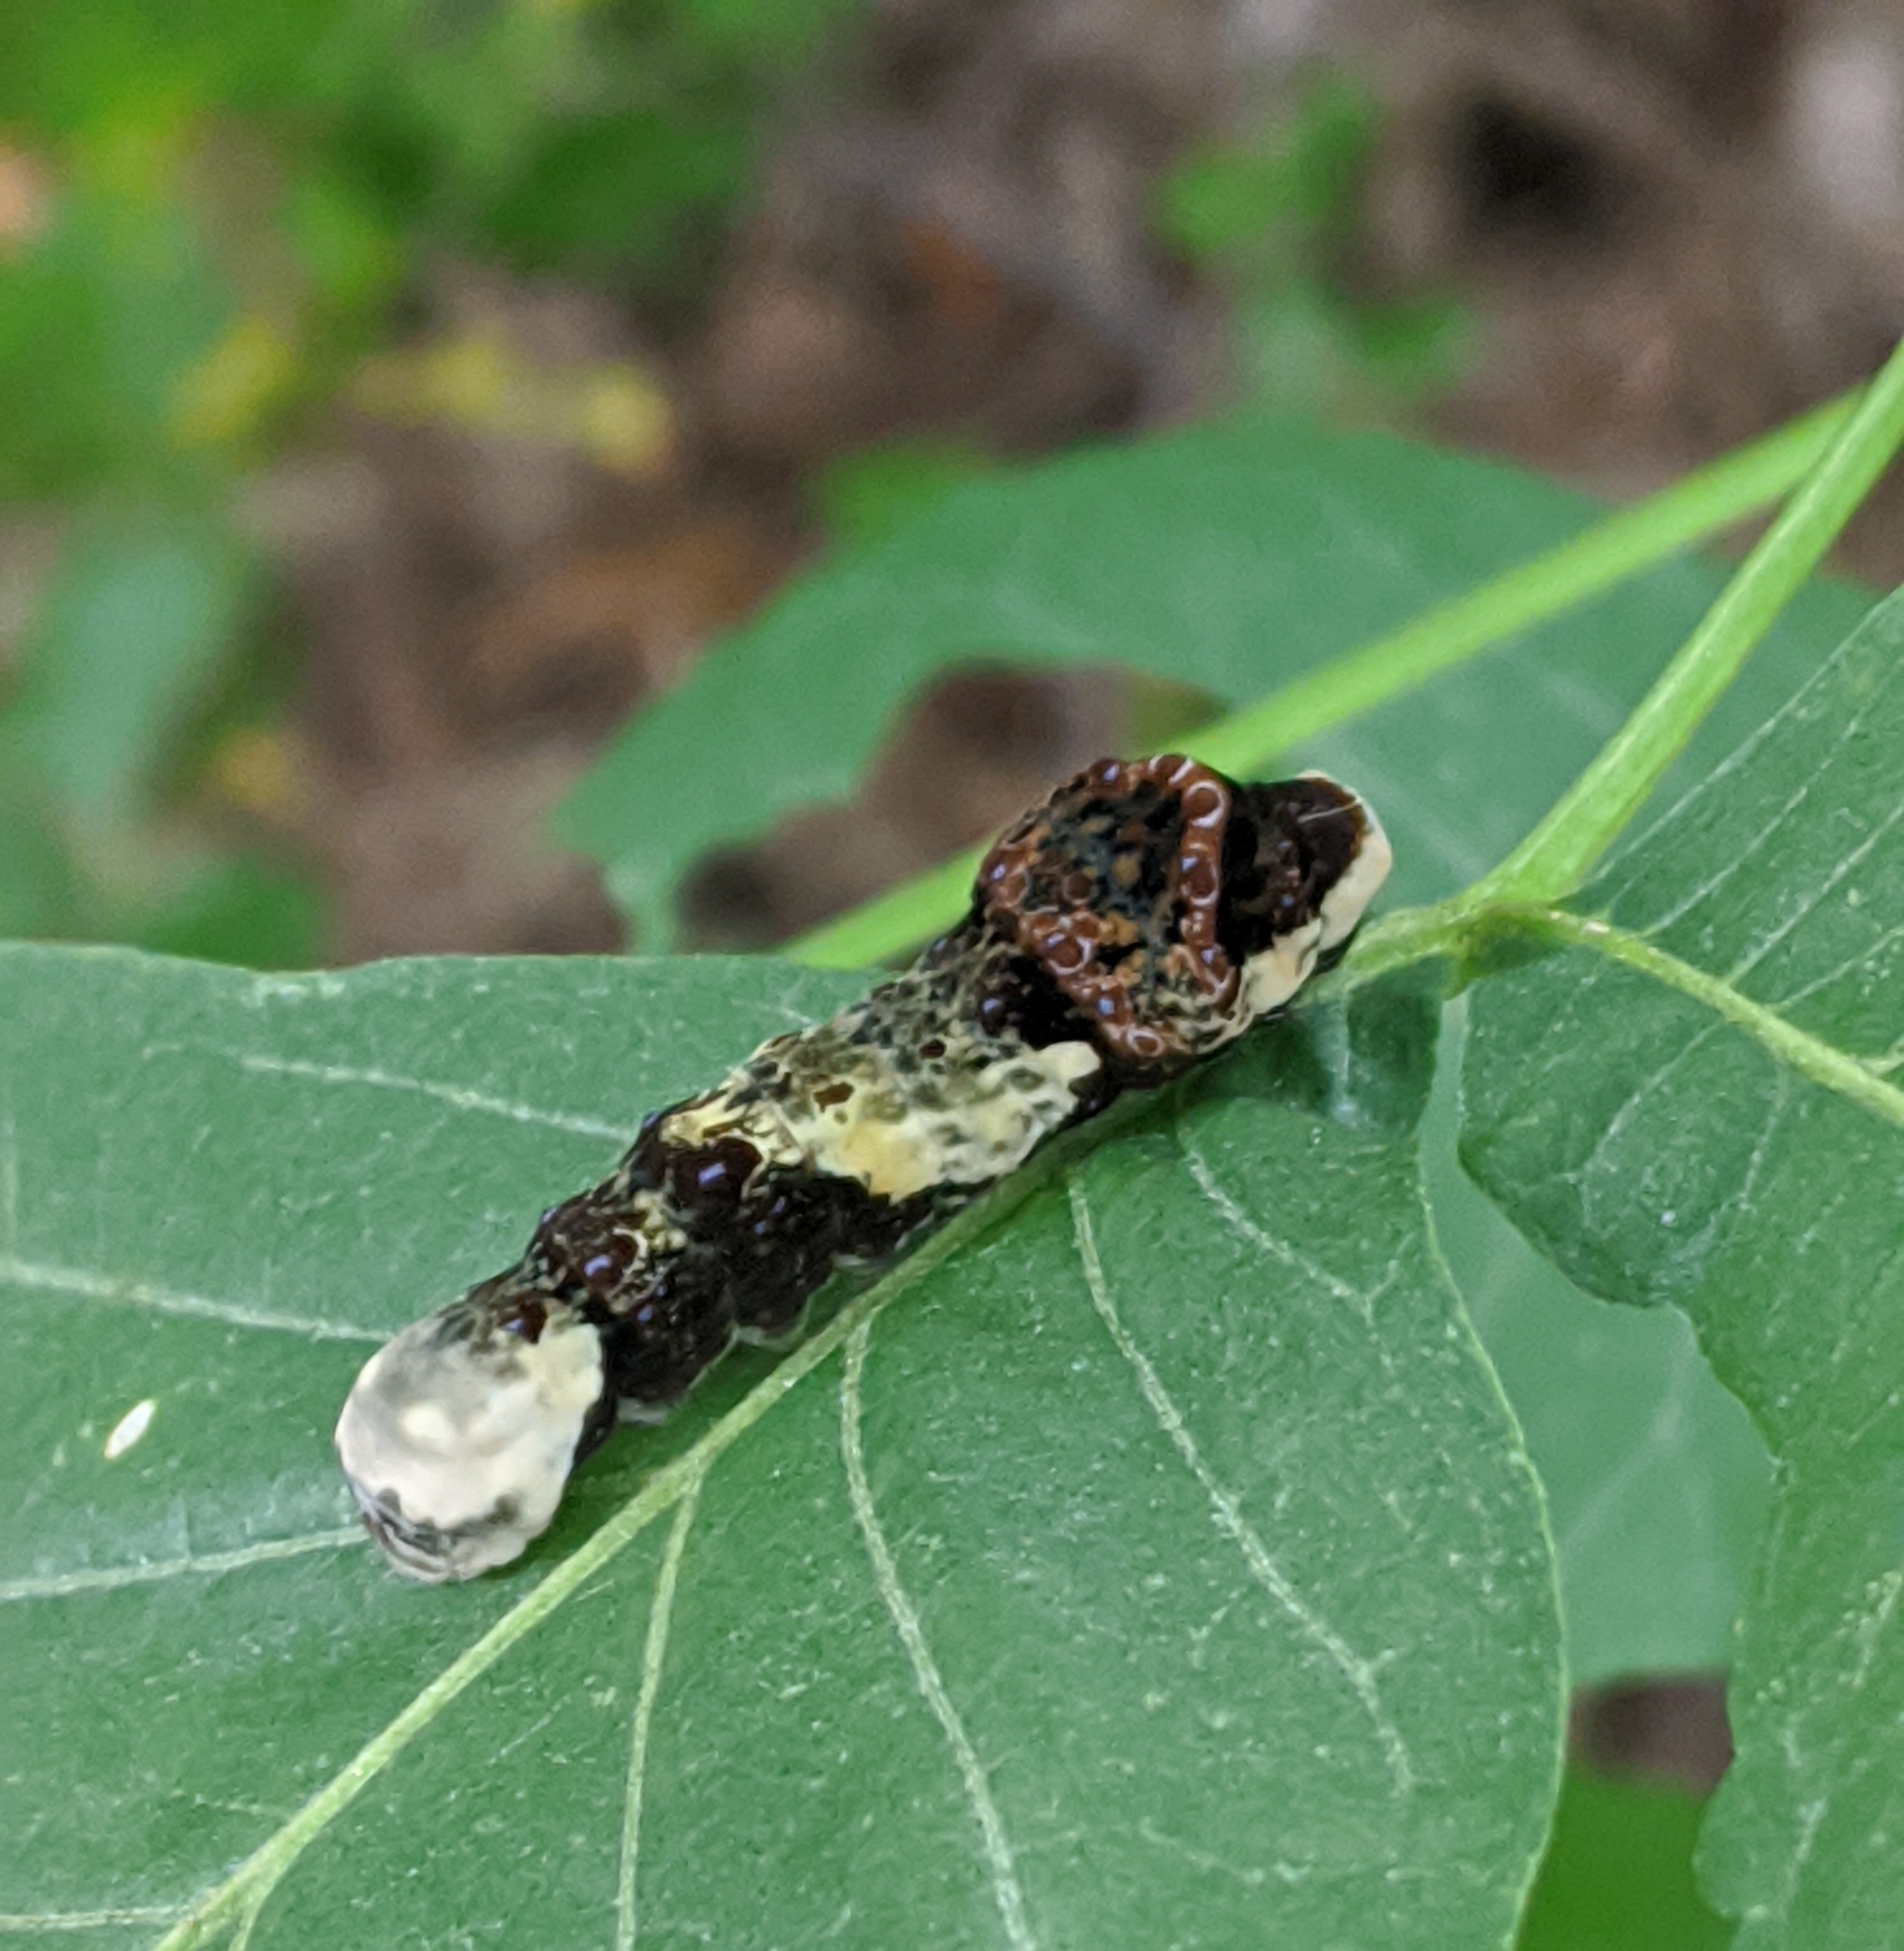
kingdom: Animalia
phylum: Arthropoda
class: Insecta
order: Lepidoptera
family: Papilionidae
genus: Papilio
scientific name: Papilio cresphontes
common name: Giant swallowtail
